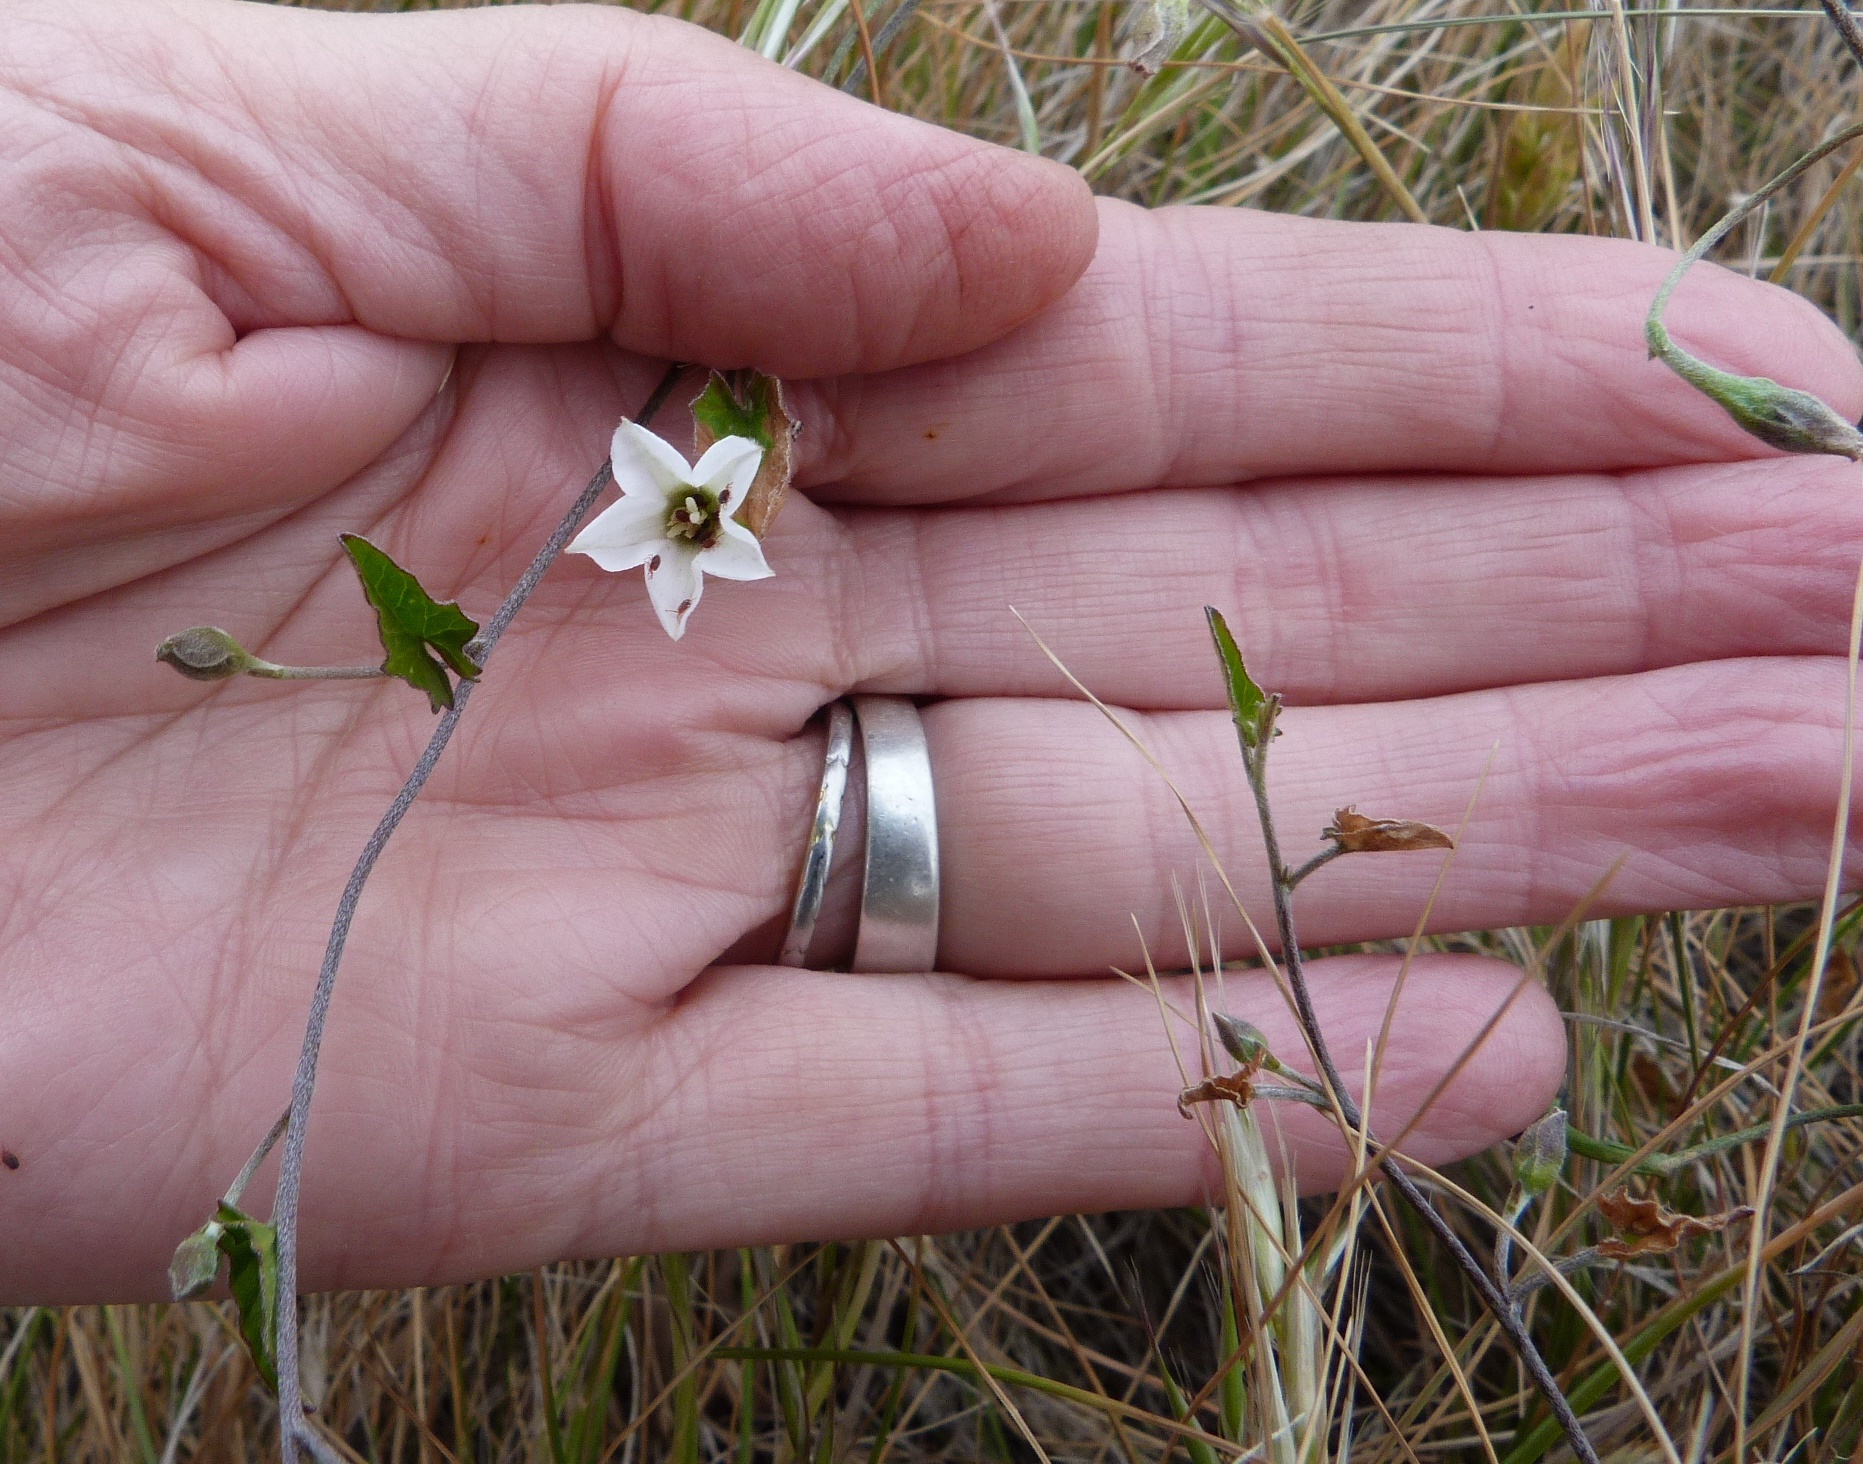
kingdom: Plantae
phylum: Tracheophyta
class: Magnoliopsida
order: Solanales
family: Convolvulaceae
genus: Convolvulus
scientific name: Convolvulus waitaha
